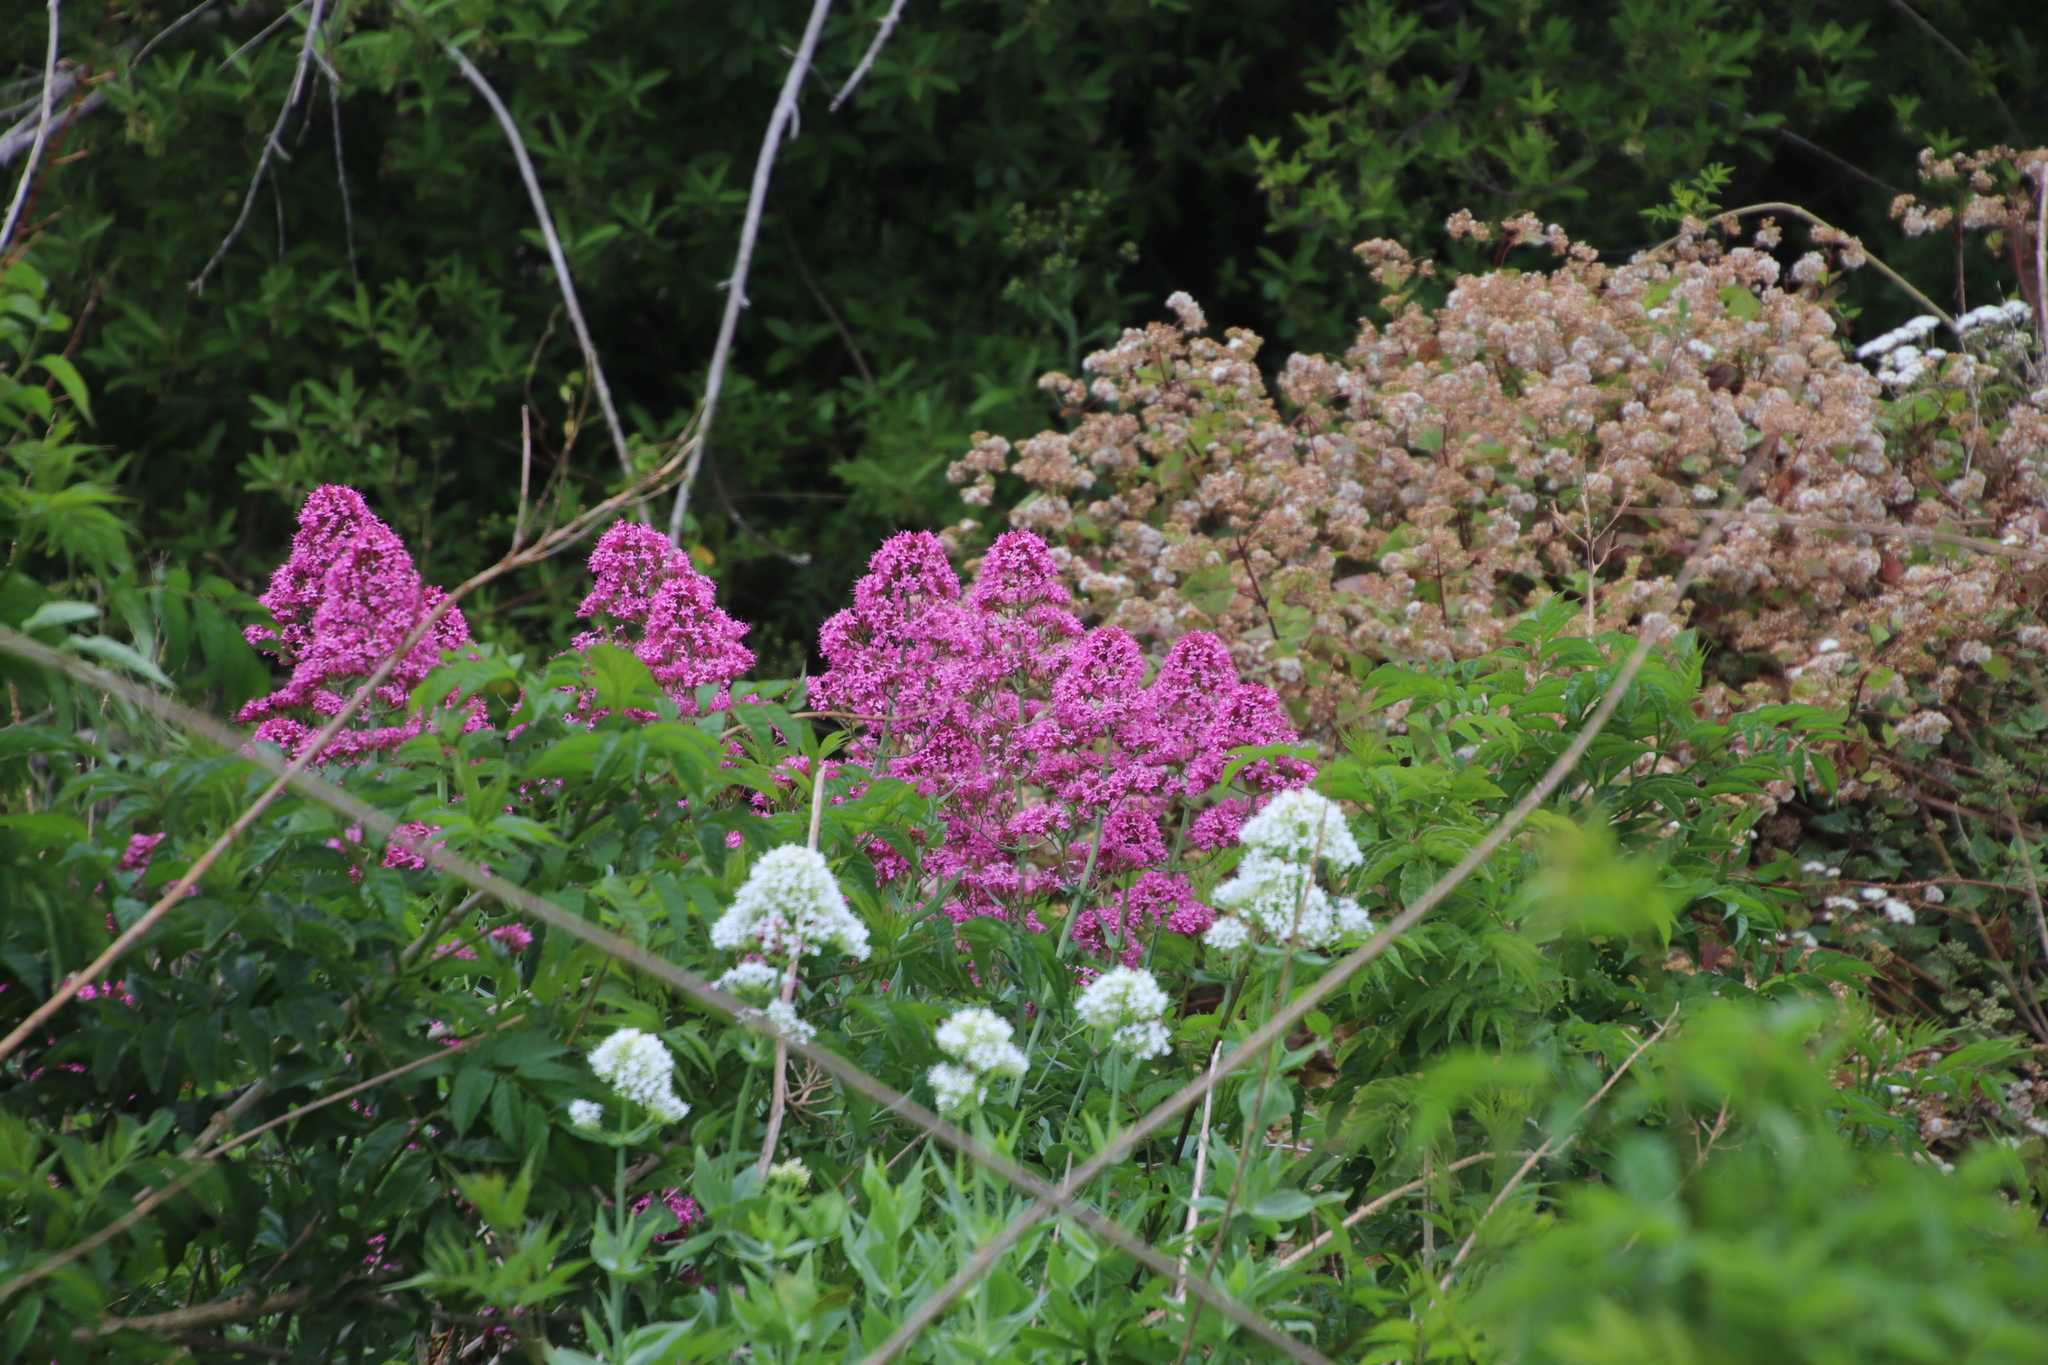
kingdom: Plantae
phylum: Tracheophyta
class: Magnoliopsida
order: Dipsacales
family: Caprifoliaceae
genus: Centranthus
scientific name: Centranthus ruber
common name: Red valerian
